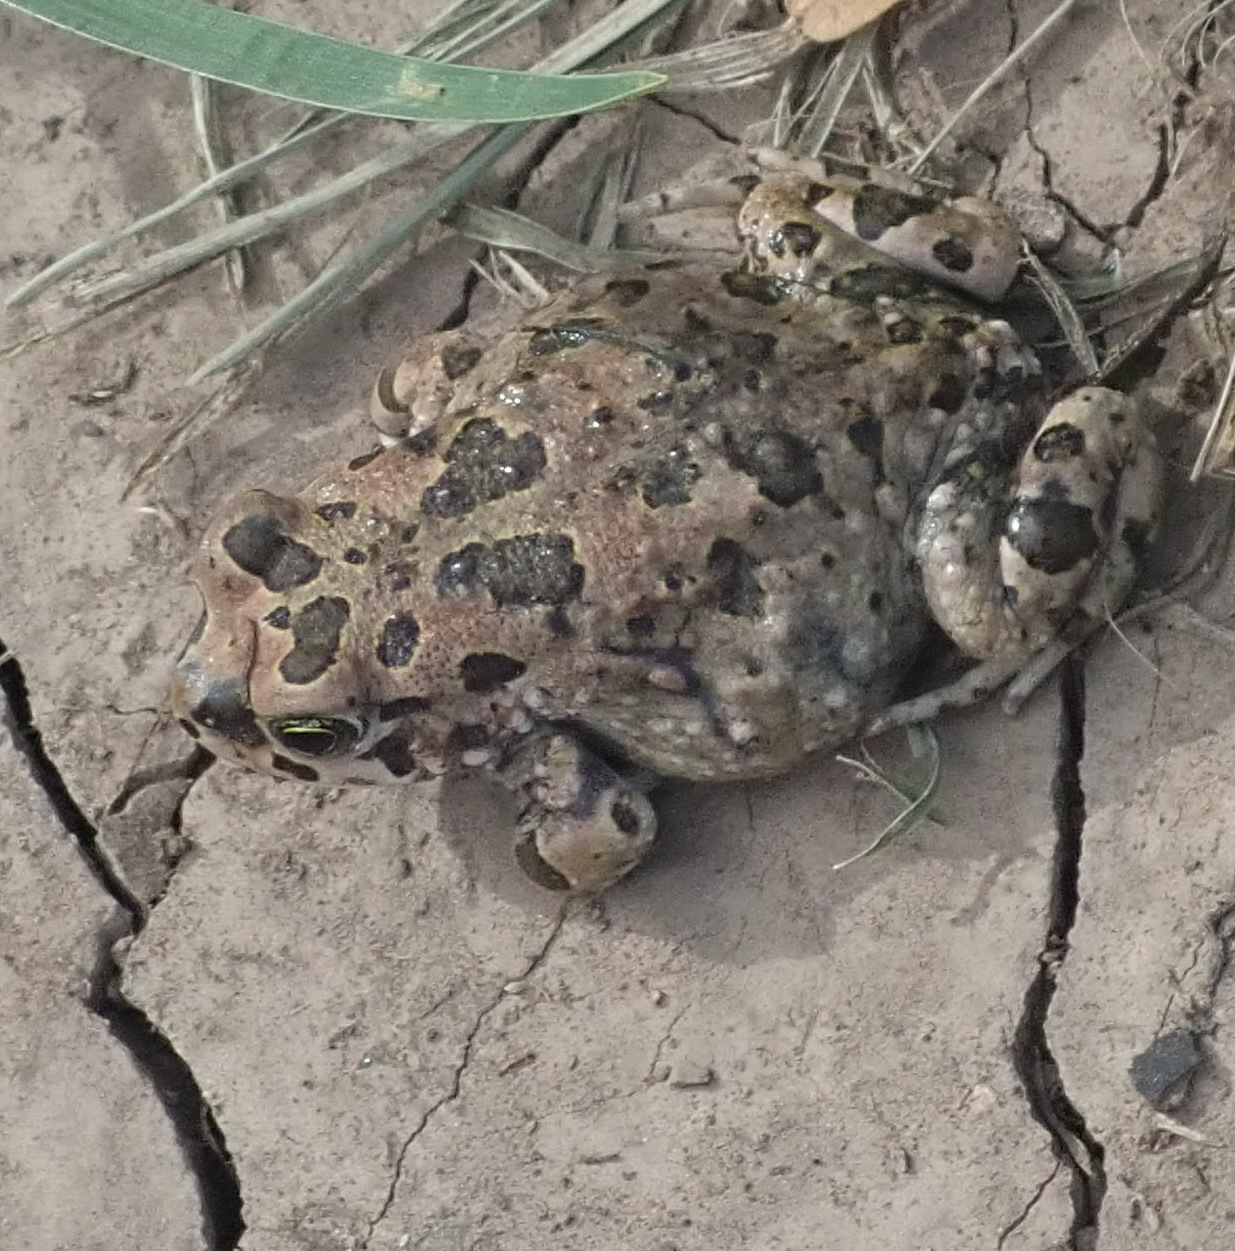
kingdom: Animalia
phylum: Chordata
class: Amphibia
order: Anura
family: Bufonidae
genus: Vandijkophrynus
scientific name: Vandijkophrynus gariepensis
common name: Gariep toad
